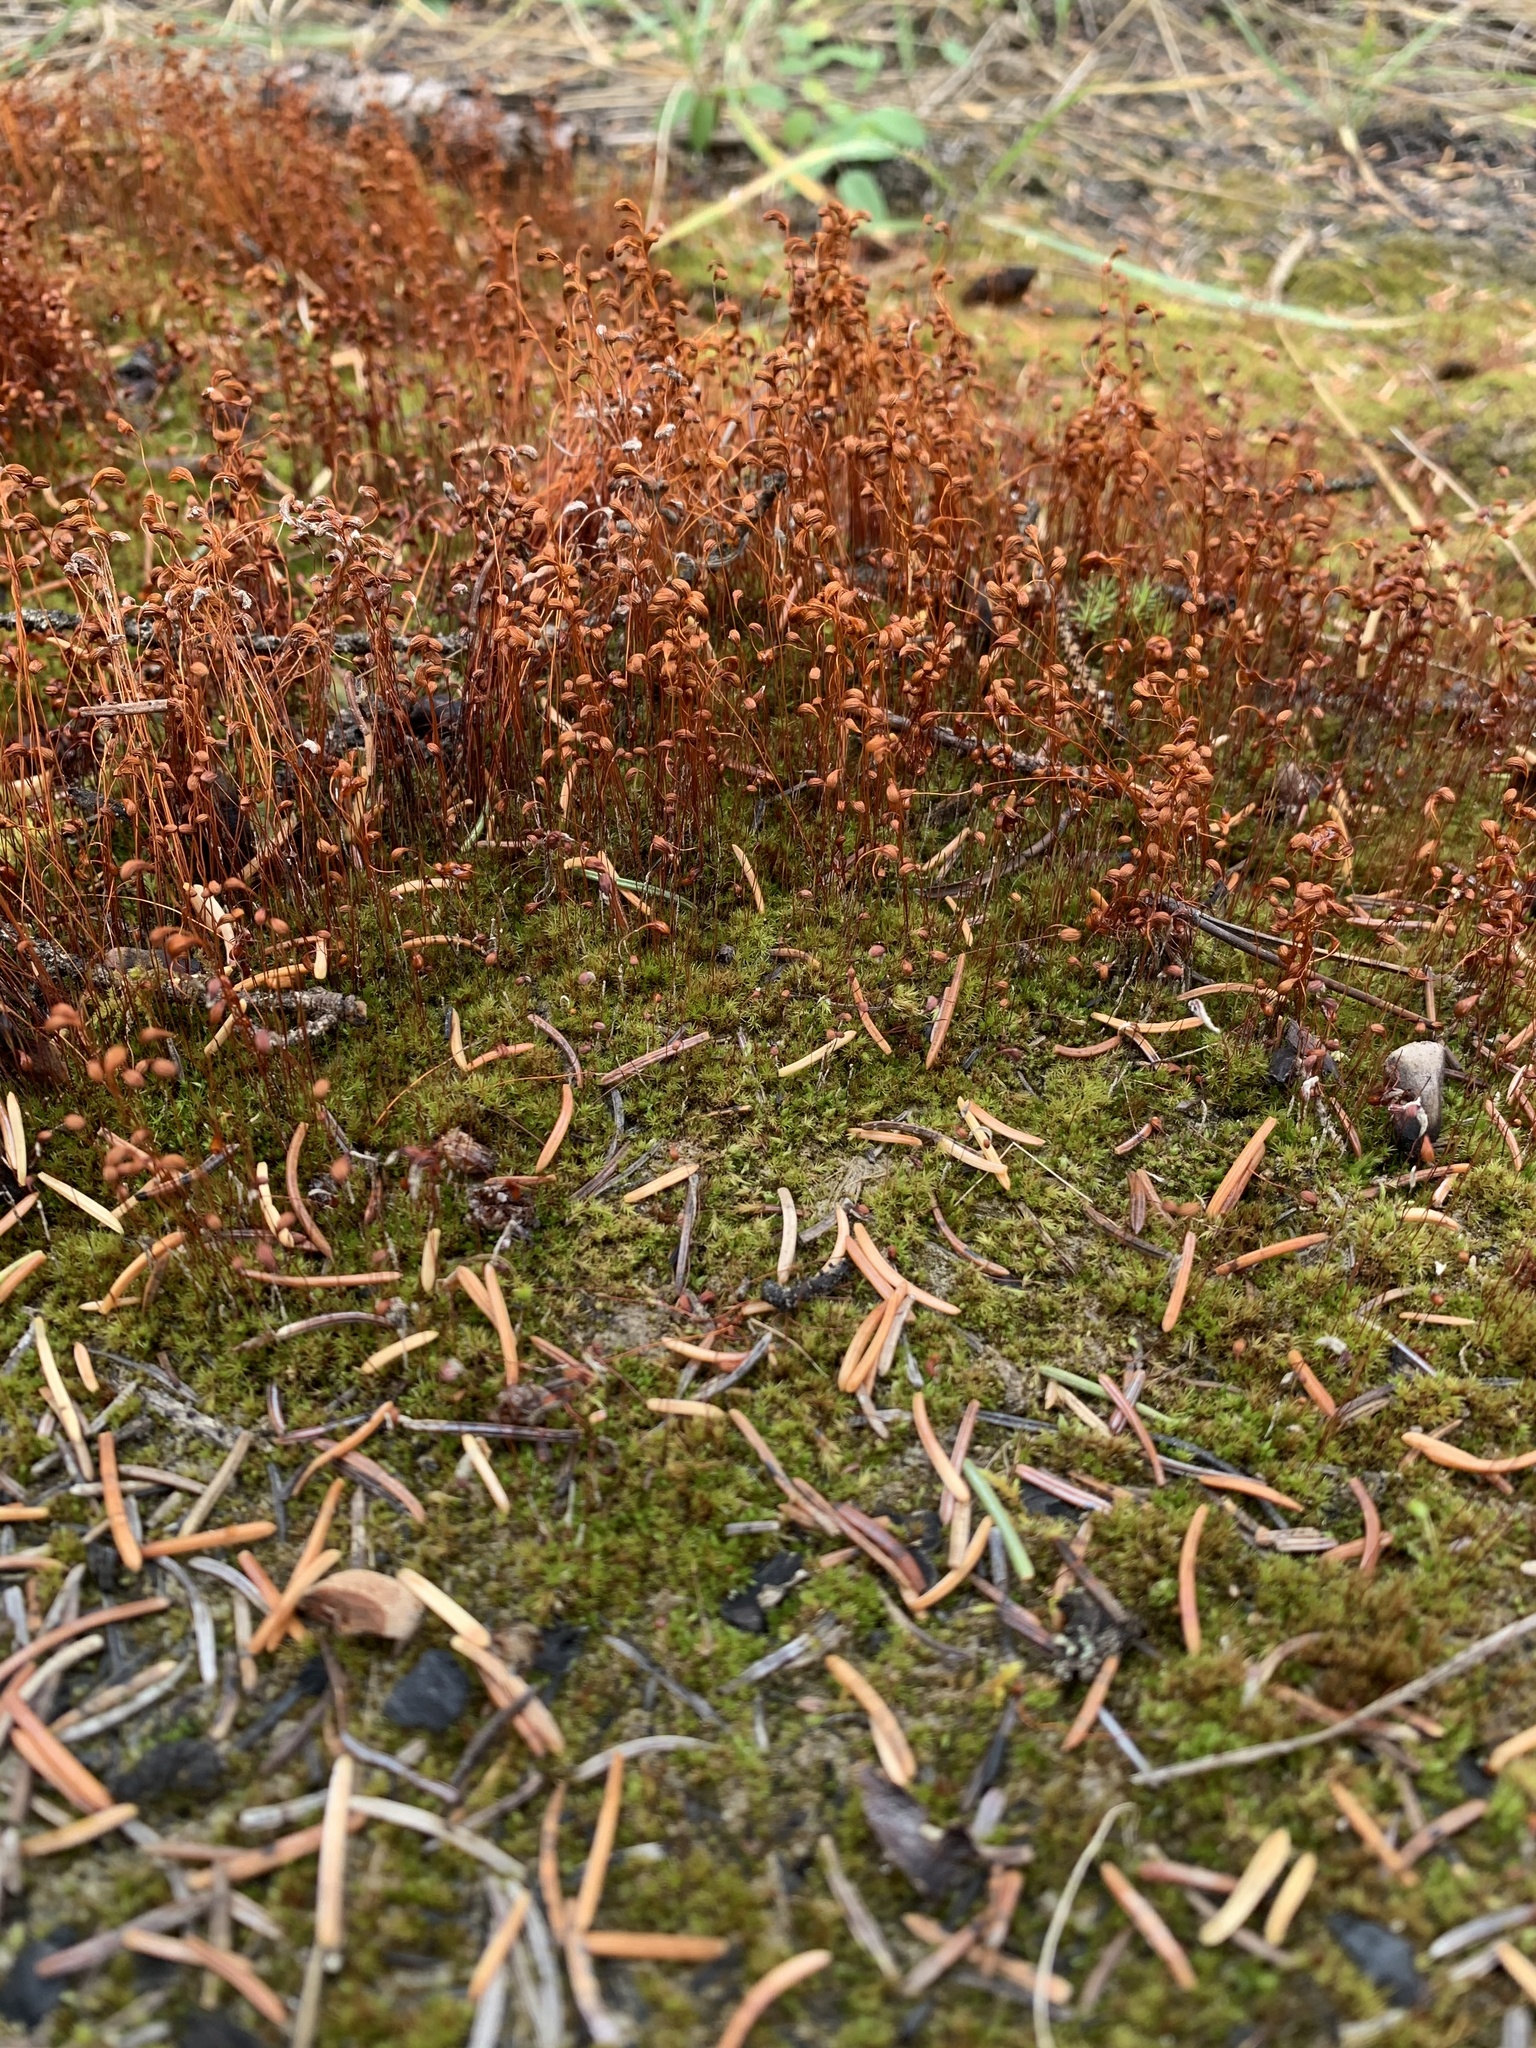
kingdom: Plantae
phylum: Bryophyta
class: Bryopsida
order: Funariales
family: Funariaceae
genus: Funaria
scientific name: Funaria hygrometrica
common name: Common cord moss
